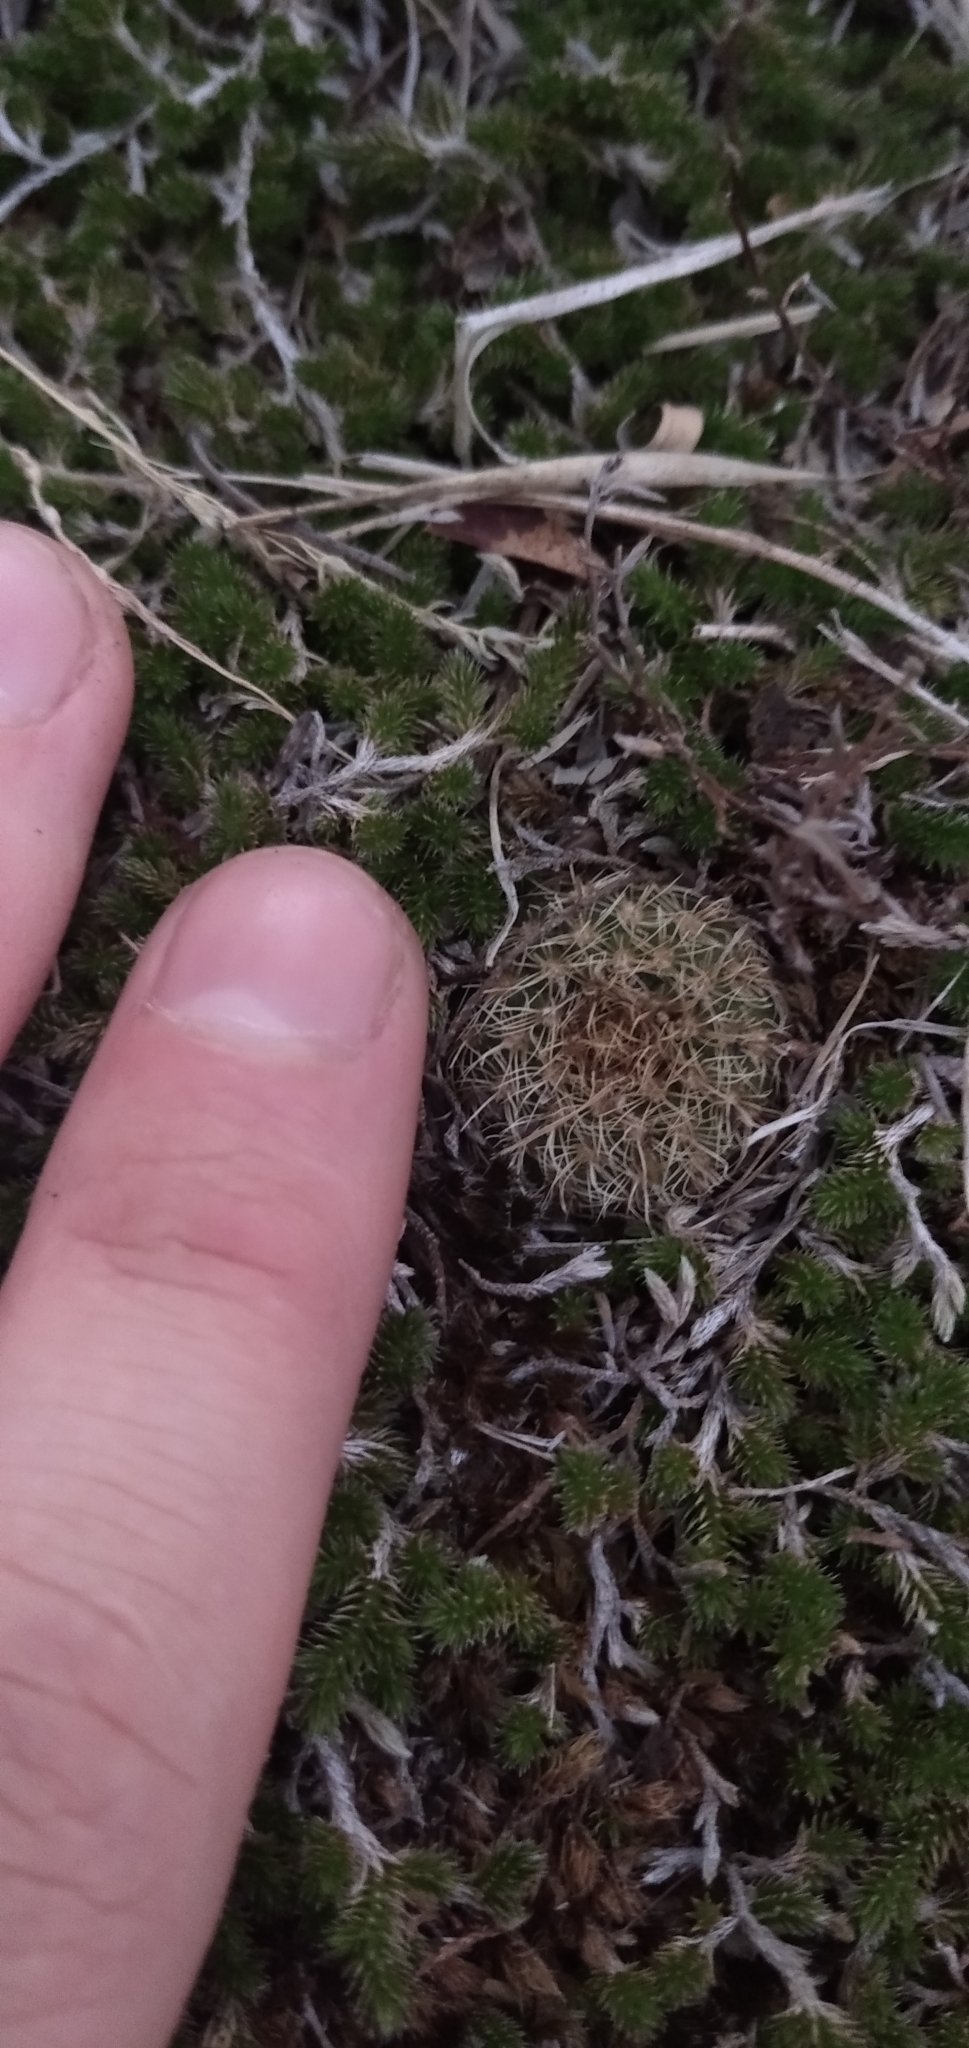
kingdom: Plantae
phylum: Tracheophyta
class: Magnoliopsida
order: Caryophyllales
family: Cactaceae
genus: Frailea
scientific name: Frailea pygmaea
